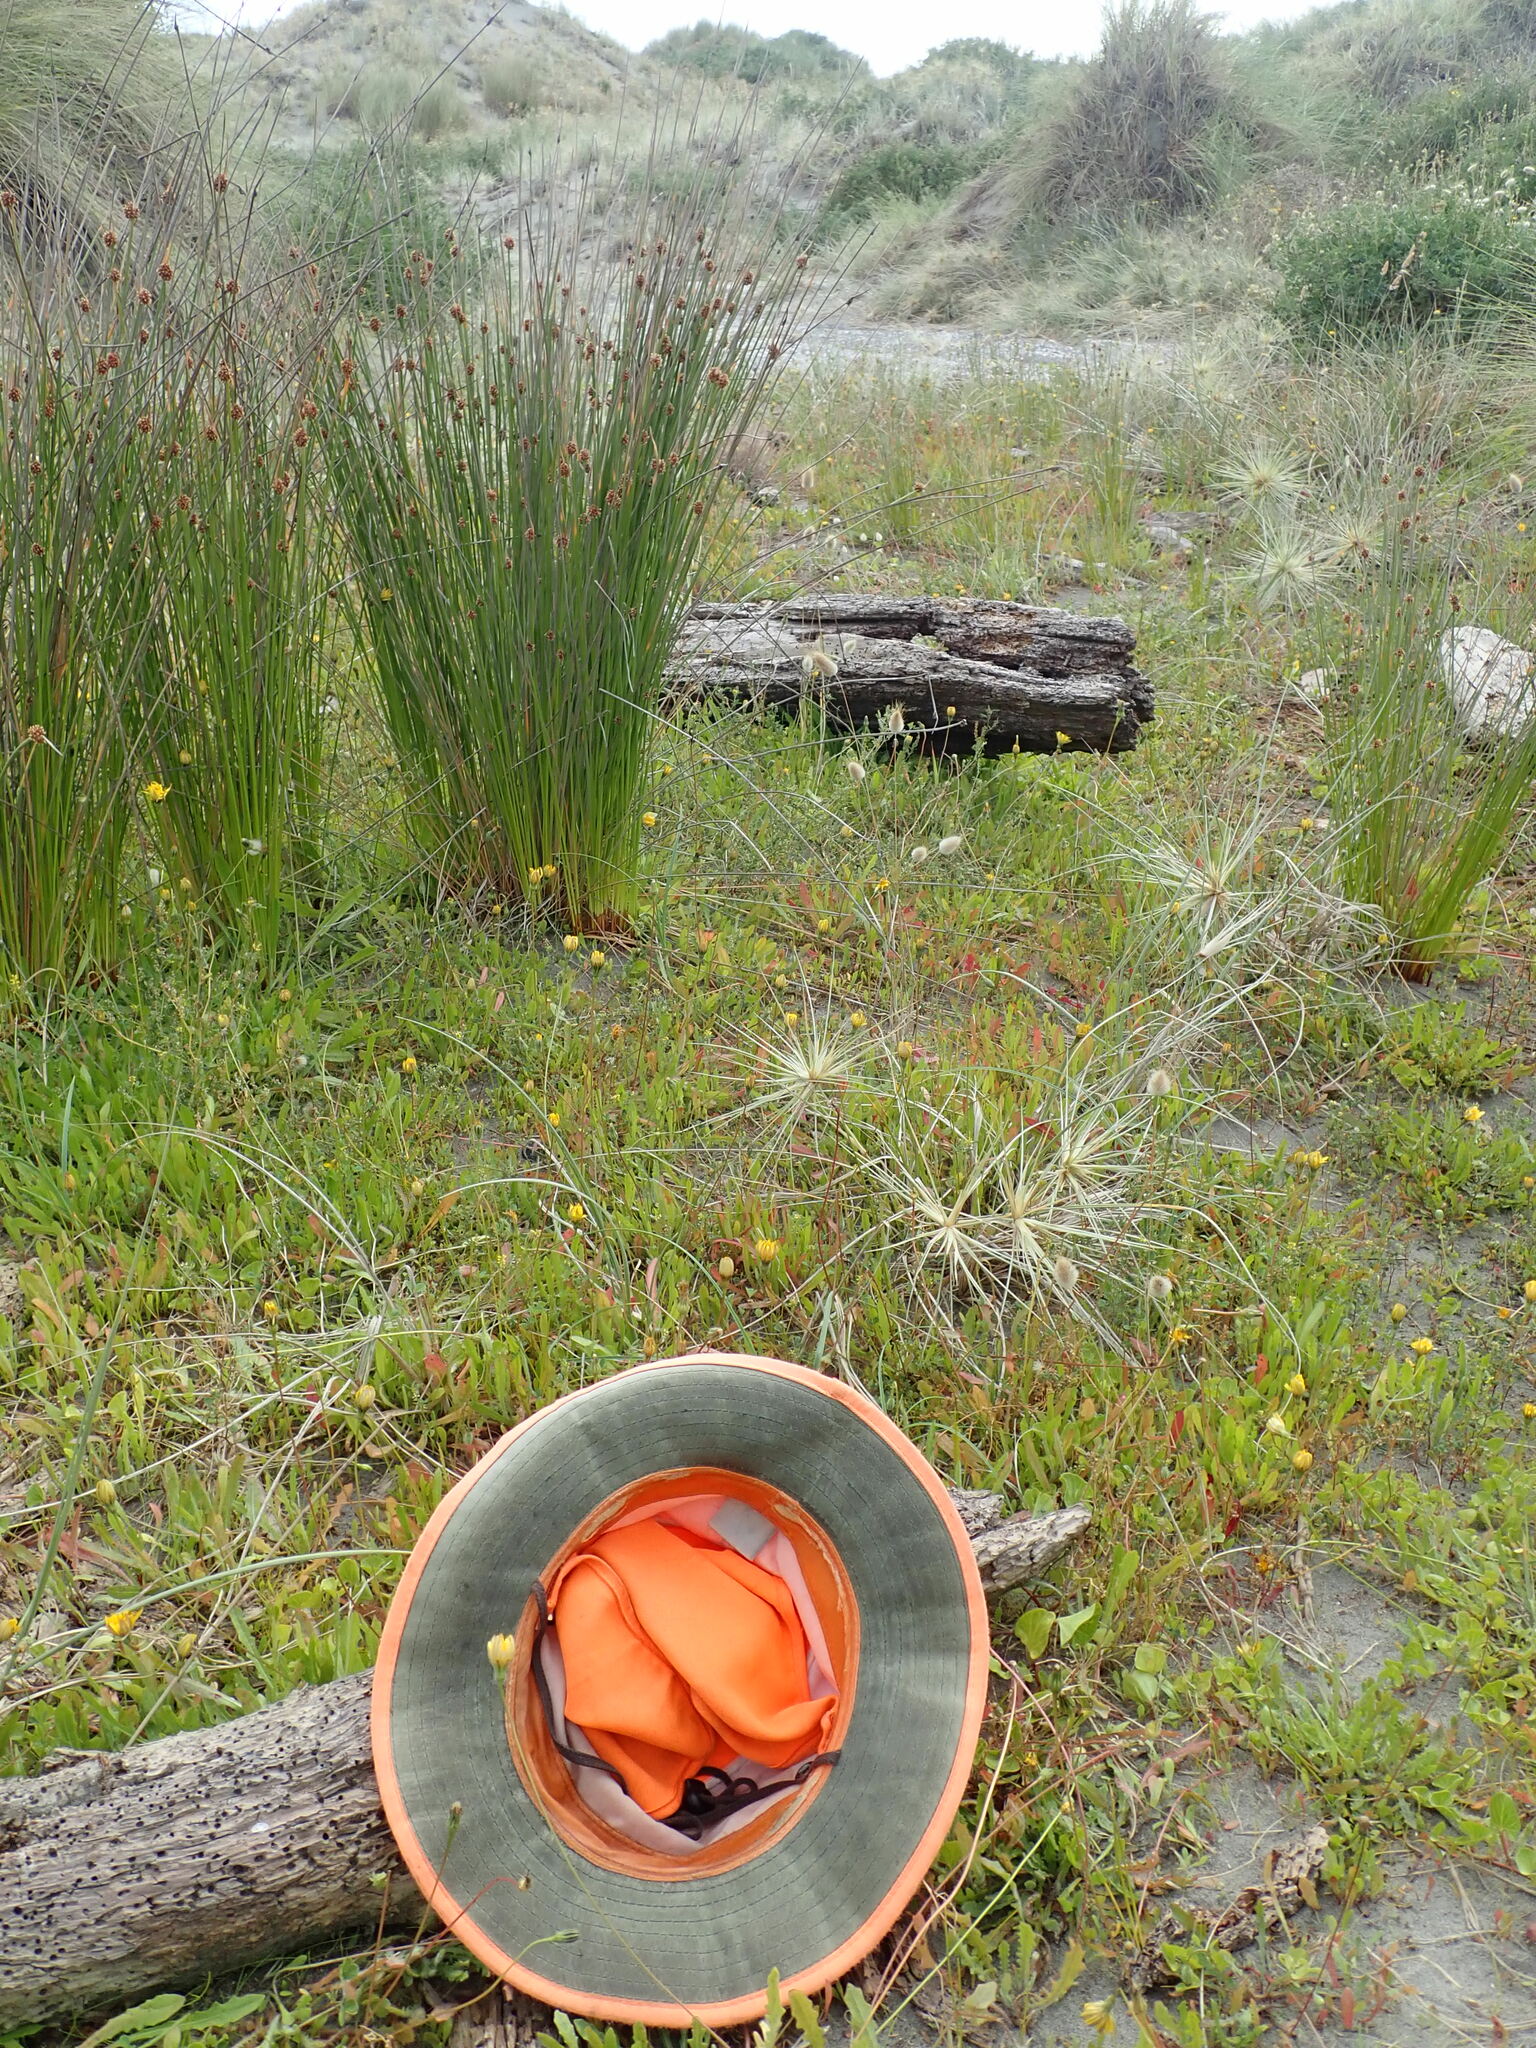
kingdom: Animalia
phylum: Arthropoda
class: Insecta
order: Dermaptera
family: Anisolabididae
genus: Anisolabis
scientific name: Anisolabis littorea
